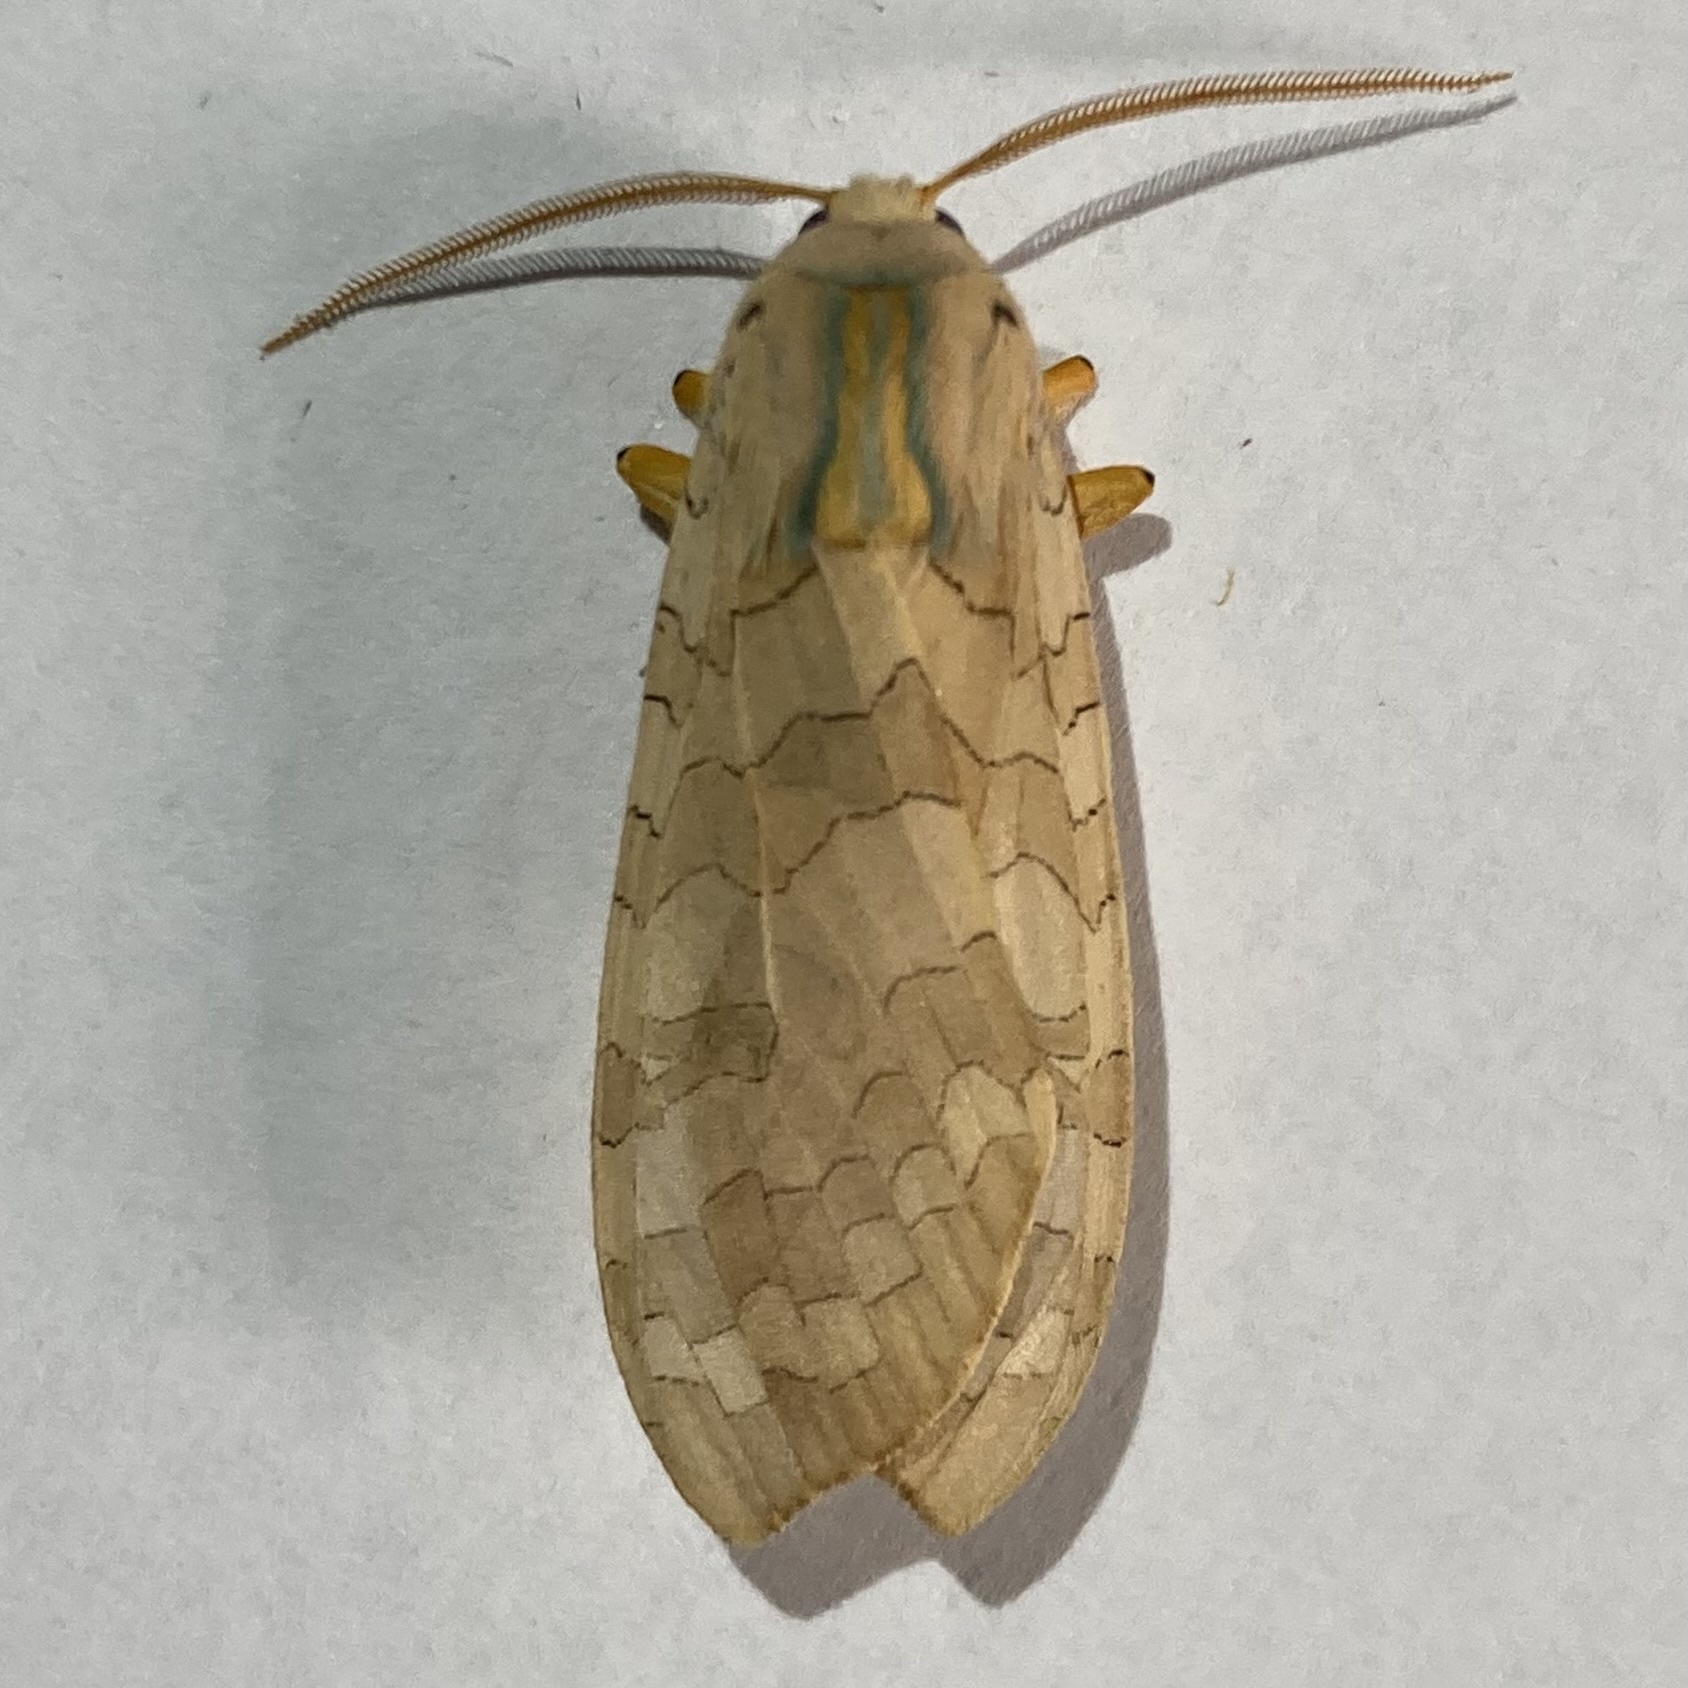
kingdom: Animalia
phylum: Arthropoda
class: Insecta
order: Lepidoptera
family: Erebidae
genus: Halysidota
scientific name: Halysidota tessellaris
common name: Banded tussock moth
